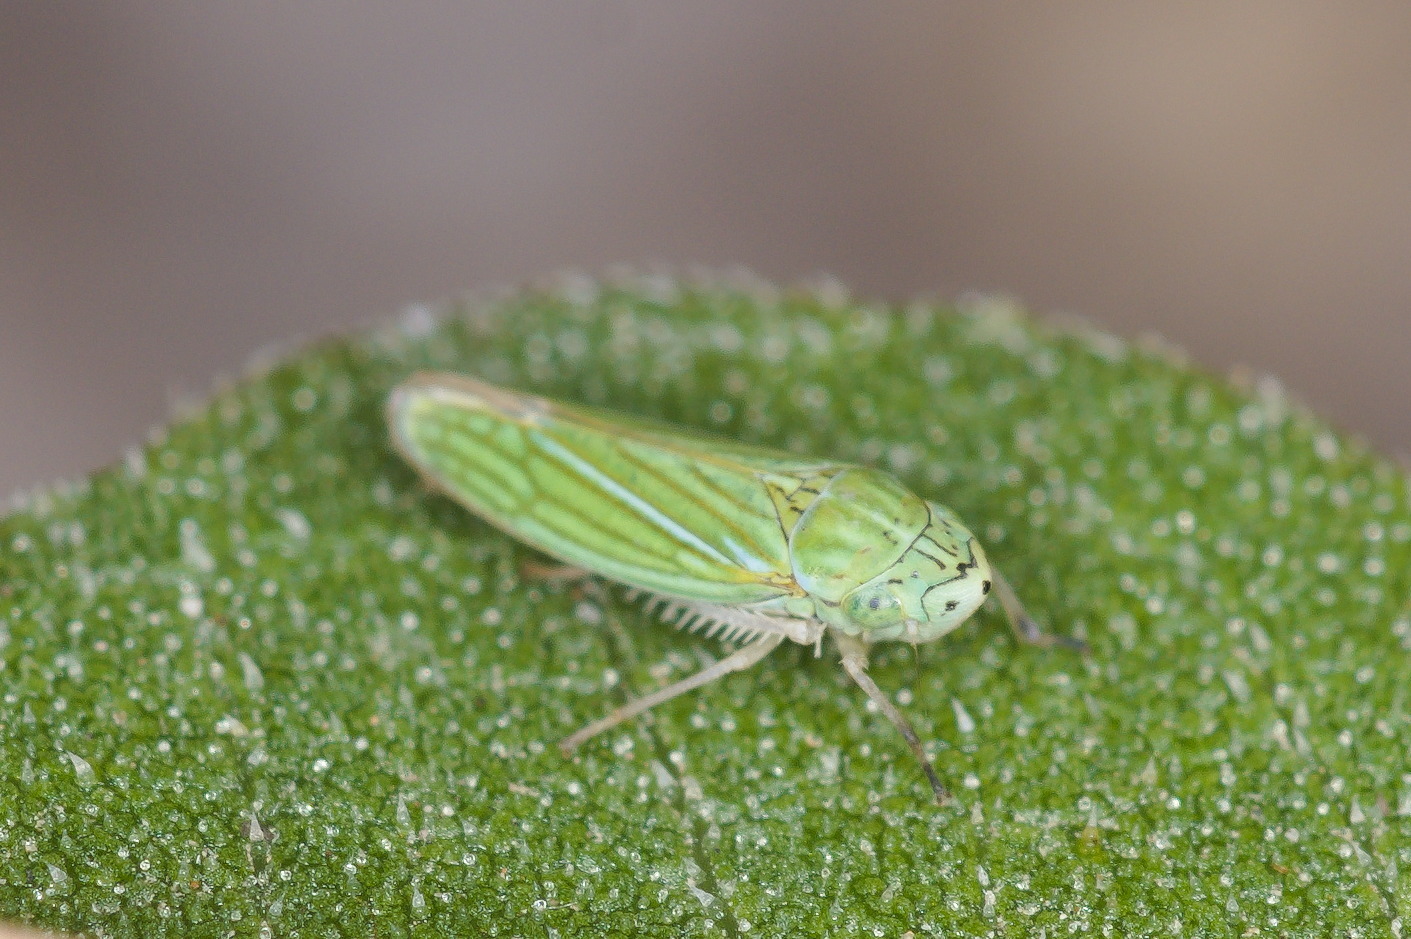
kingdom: Animalia
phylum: Arthropoda
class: Insecta
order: Hemiptera
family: Cicadellidae
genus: Graphocephala
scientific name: Graphocephala cythura
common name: Leafhopper
